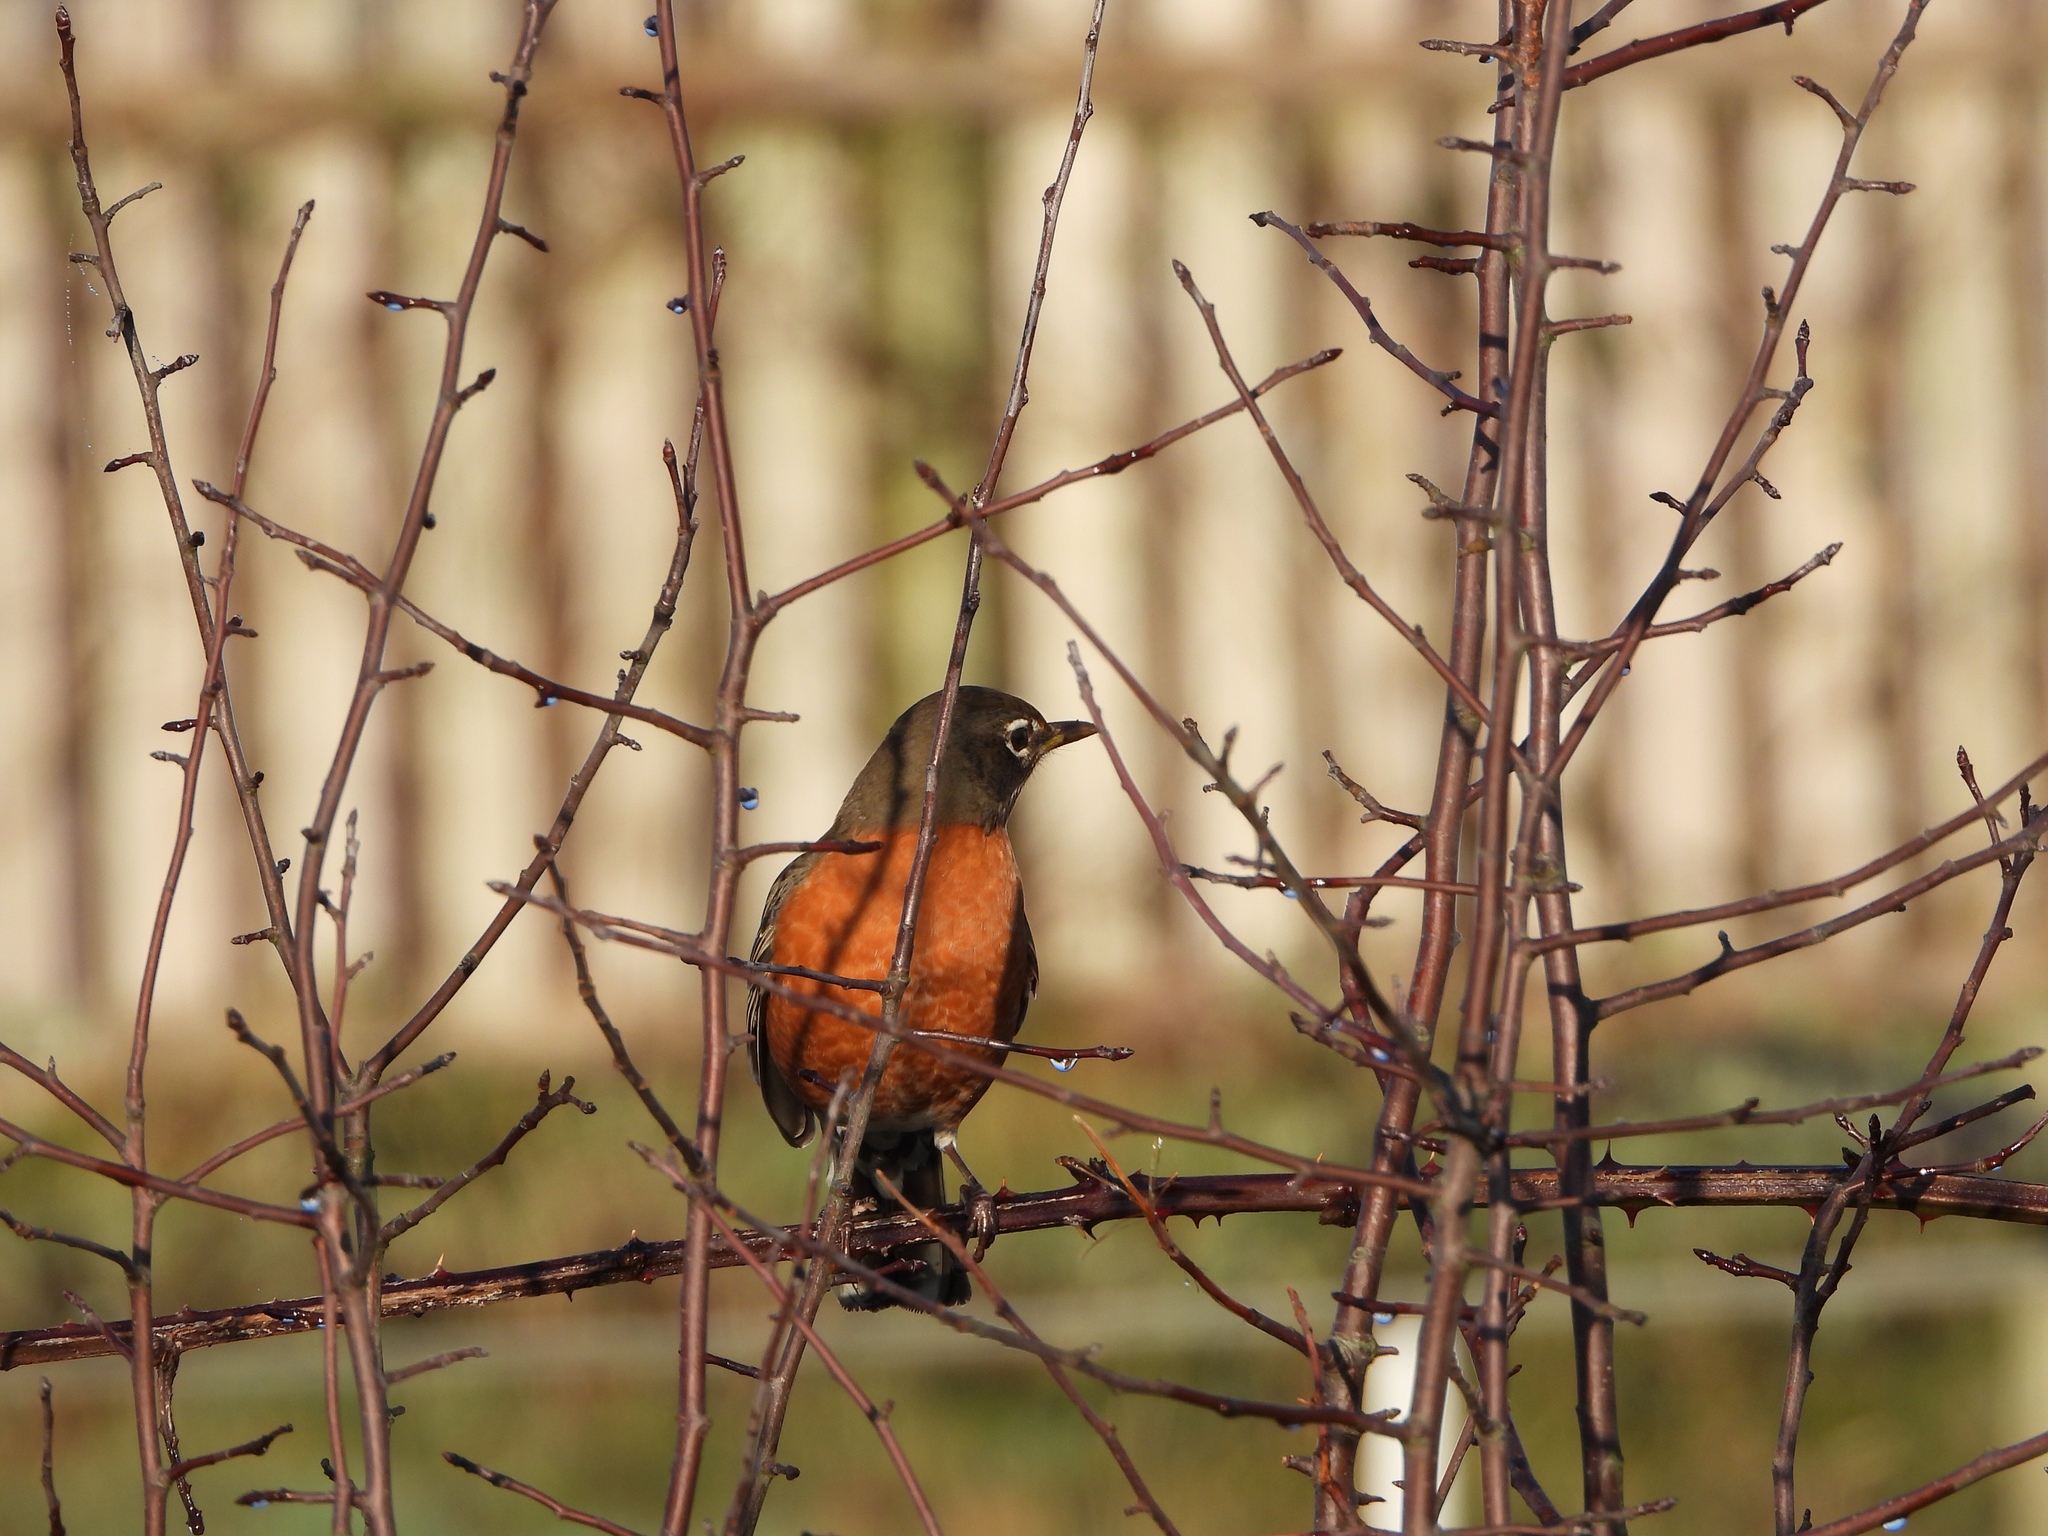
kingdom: Animalia
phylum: Chordata
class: Aves
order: Passeriformes
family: Turdidae
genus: Turdus
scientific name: Turdus migratorius
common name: American robin
